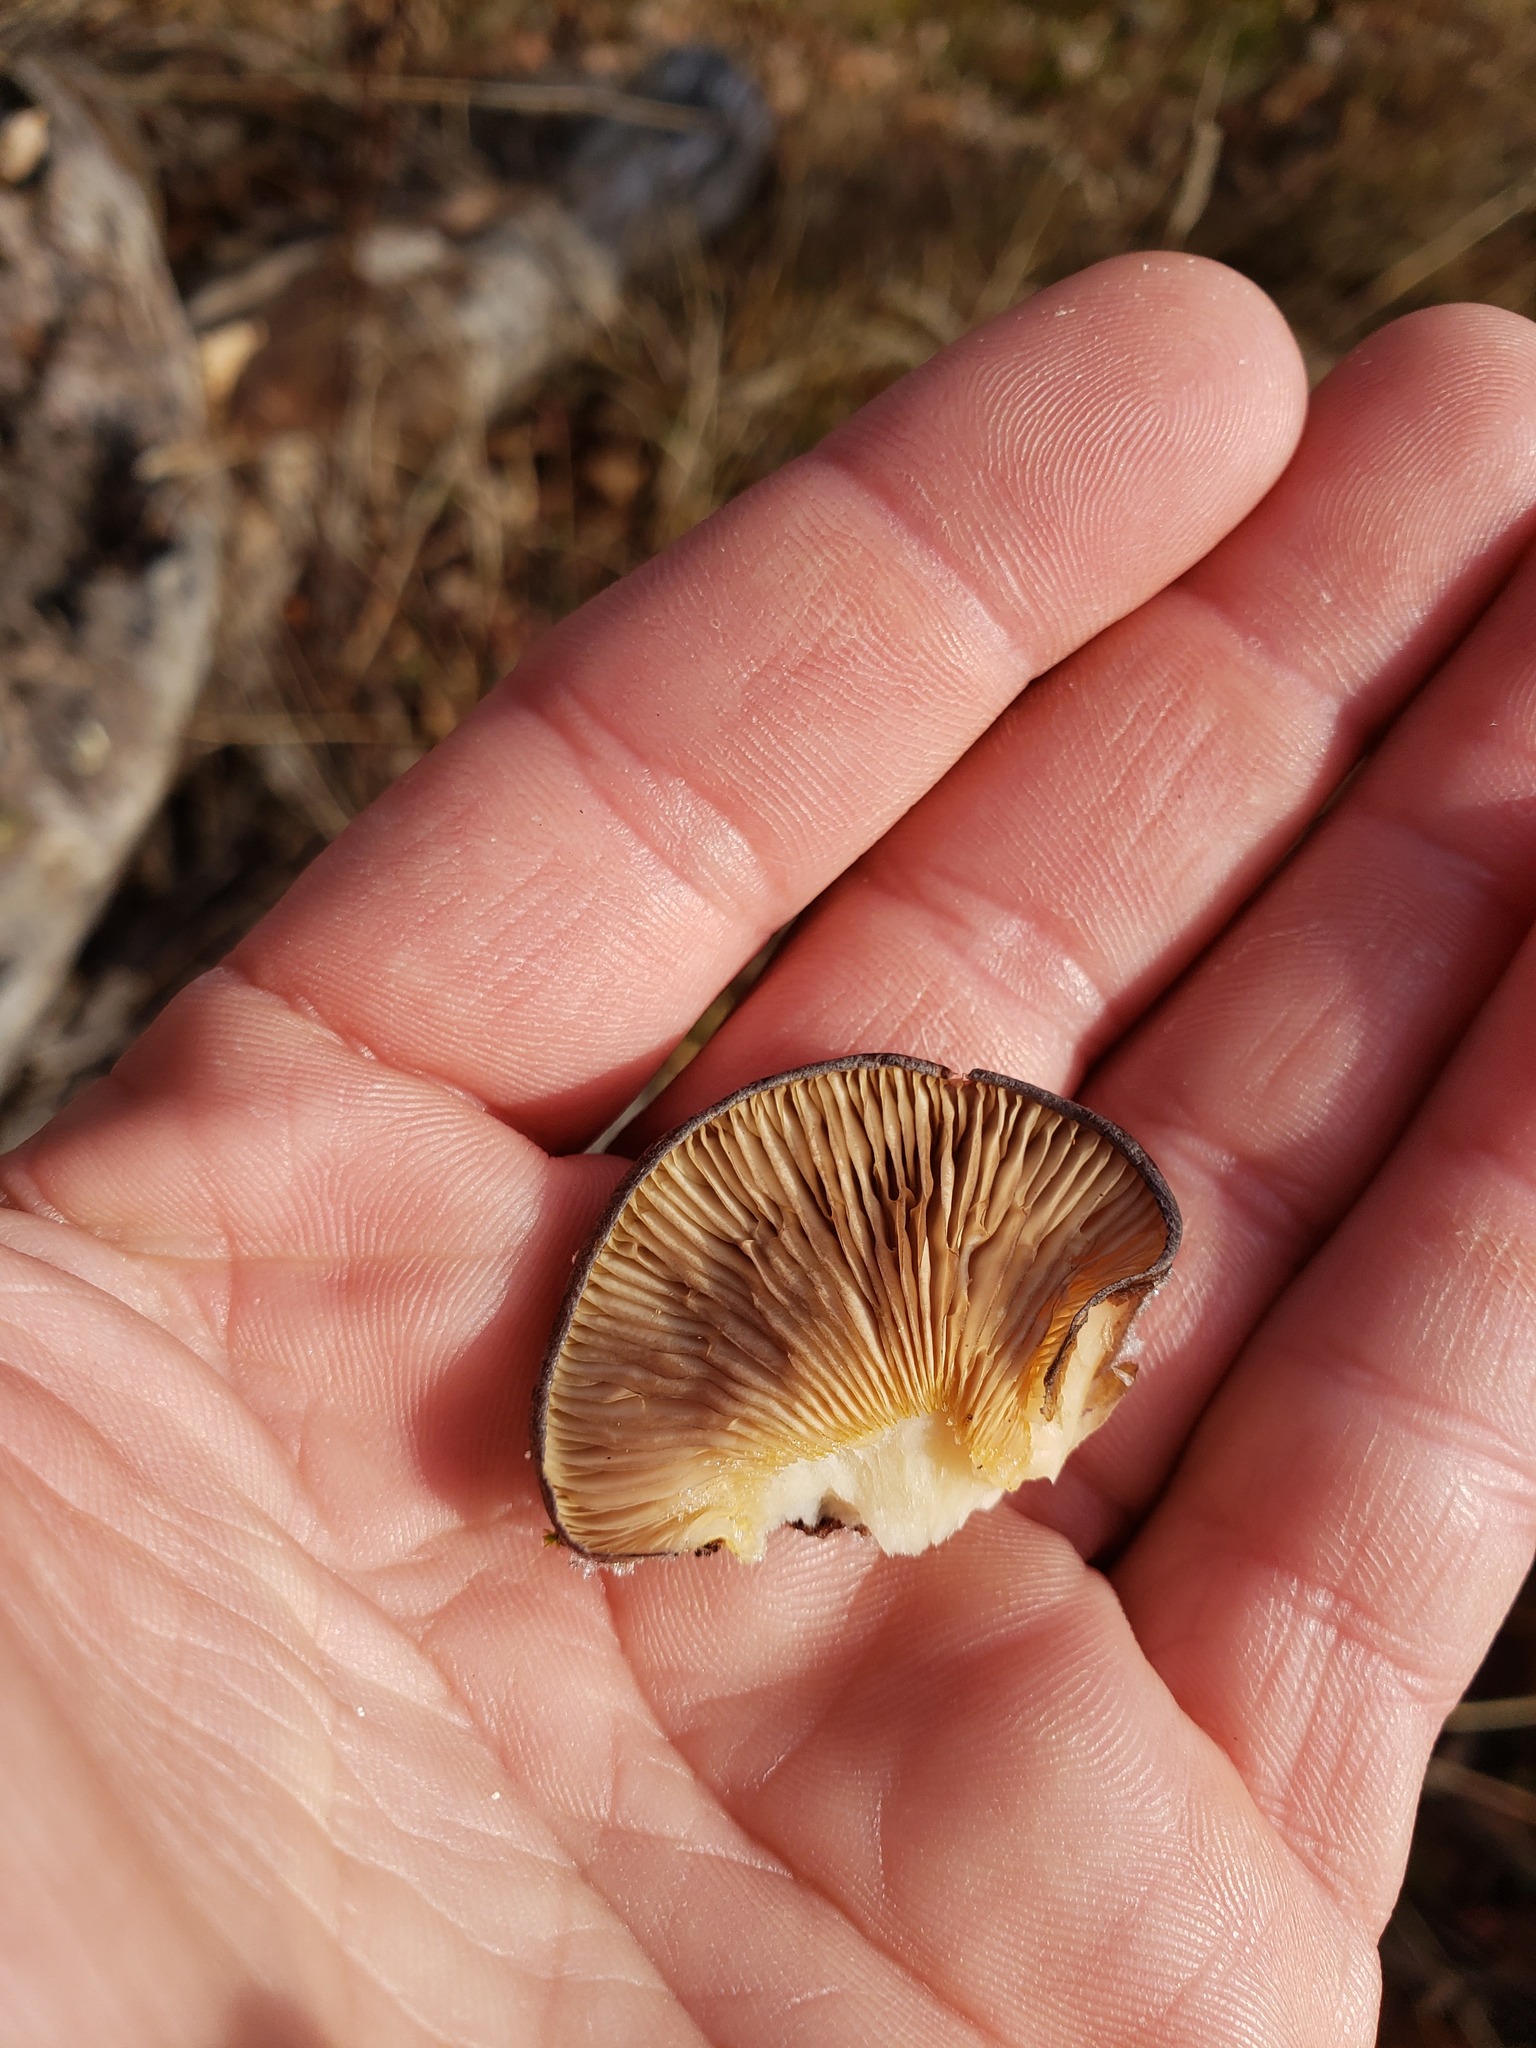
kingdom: Fungi
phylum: Basidiomycota
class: Agaricomycetes
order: Agaricales
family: Sarcomyxaceae
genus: Sarcomyxa
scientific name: Sarcomyxa serotina
